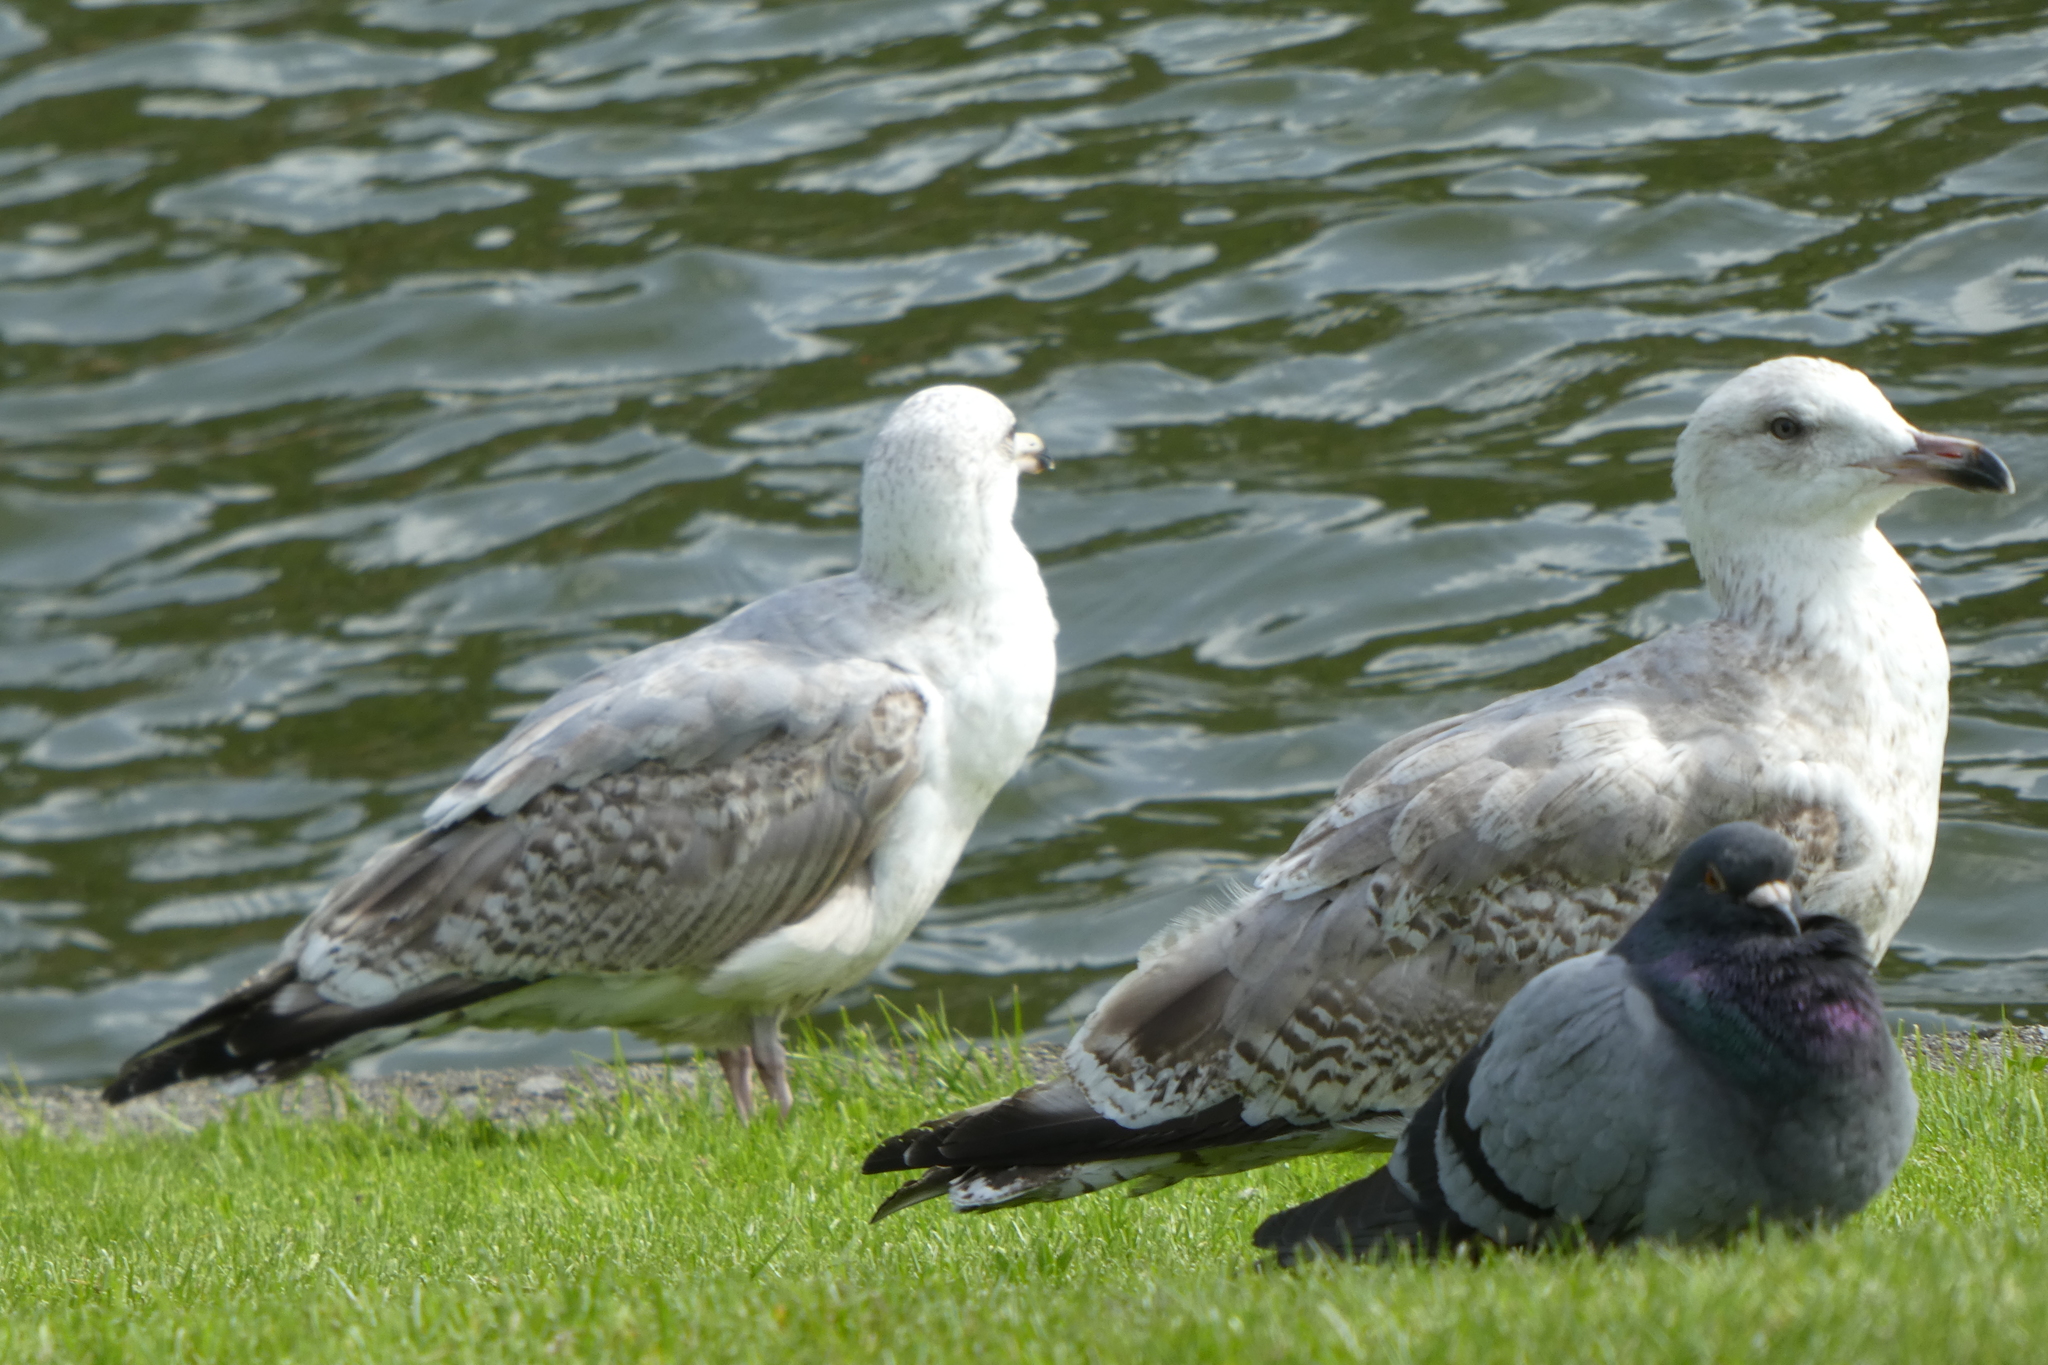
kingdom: Animalia
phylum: Chordata
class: Aves
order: Columbiformes
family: Columbidae
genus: Columba
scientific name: Columba livia
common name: Rock pigeon
